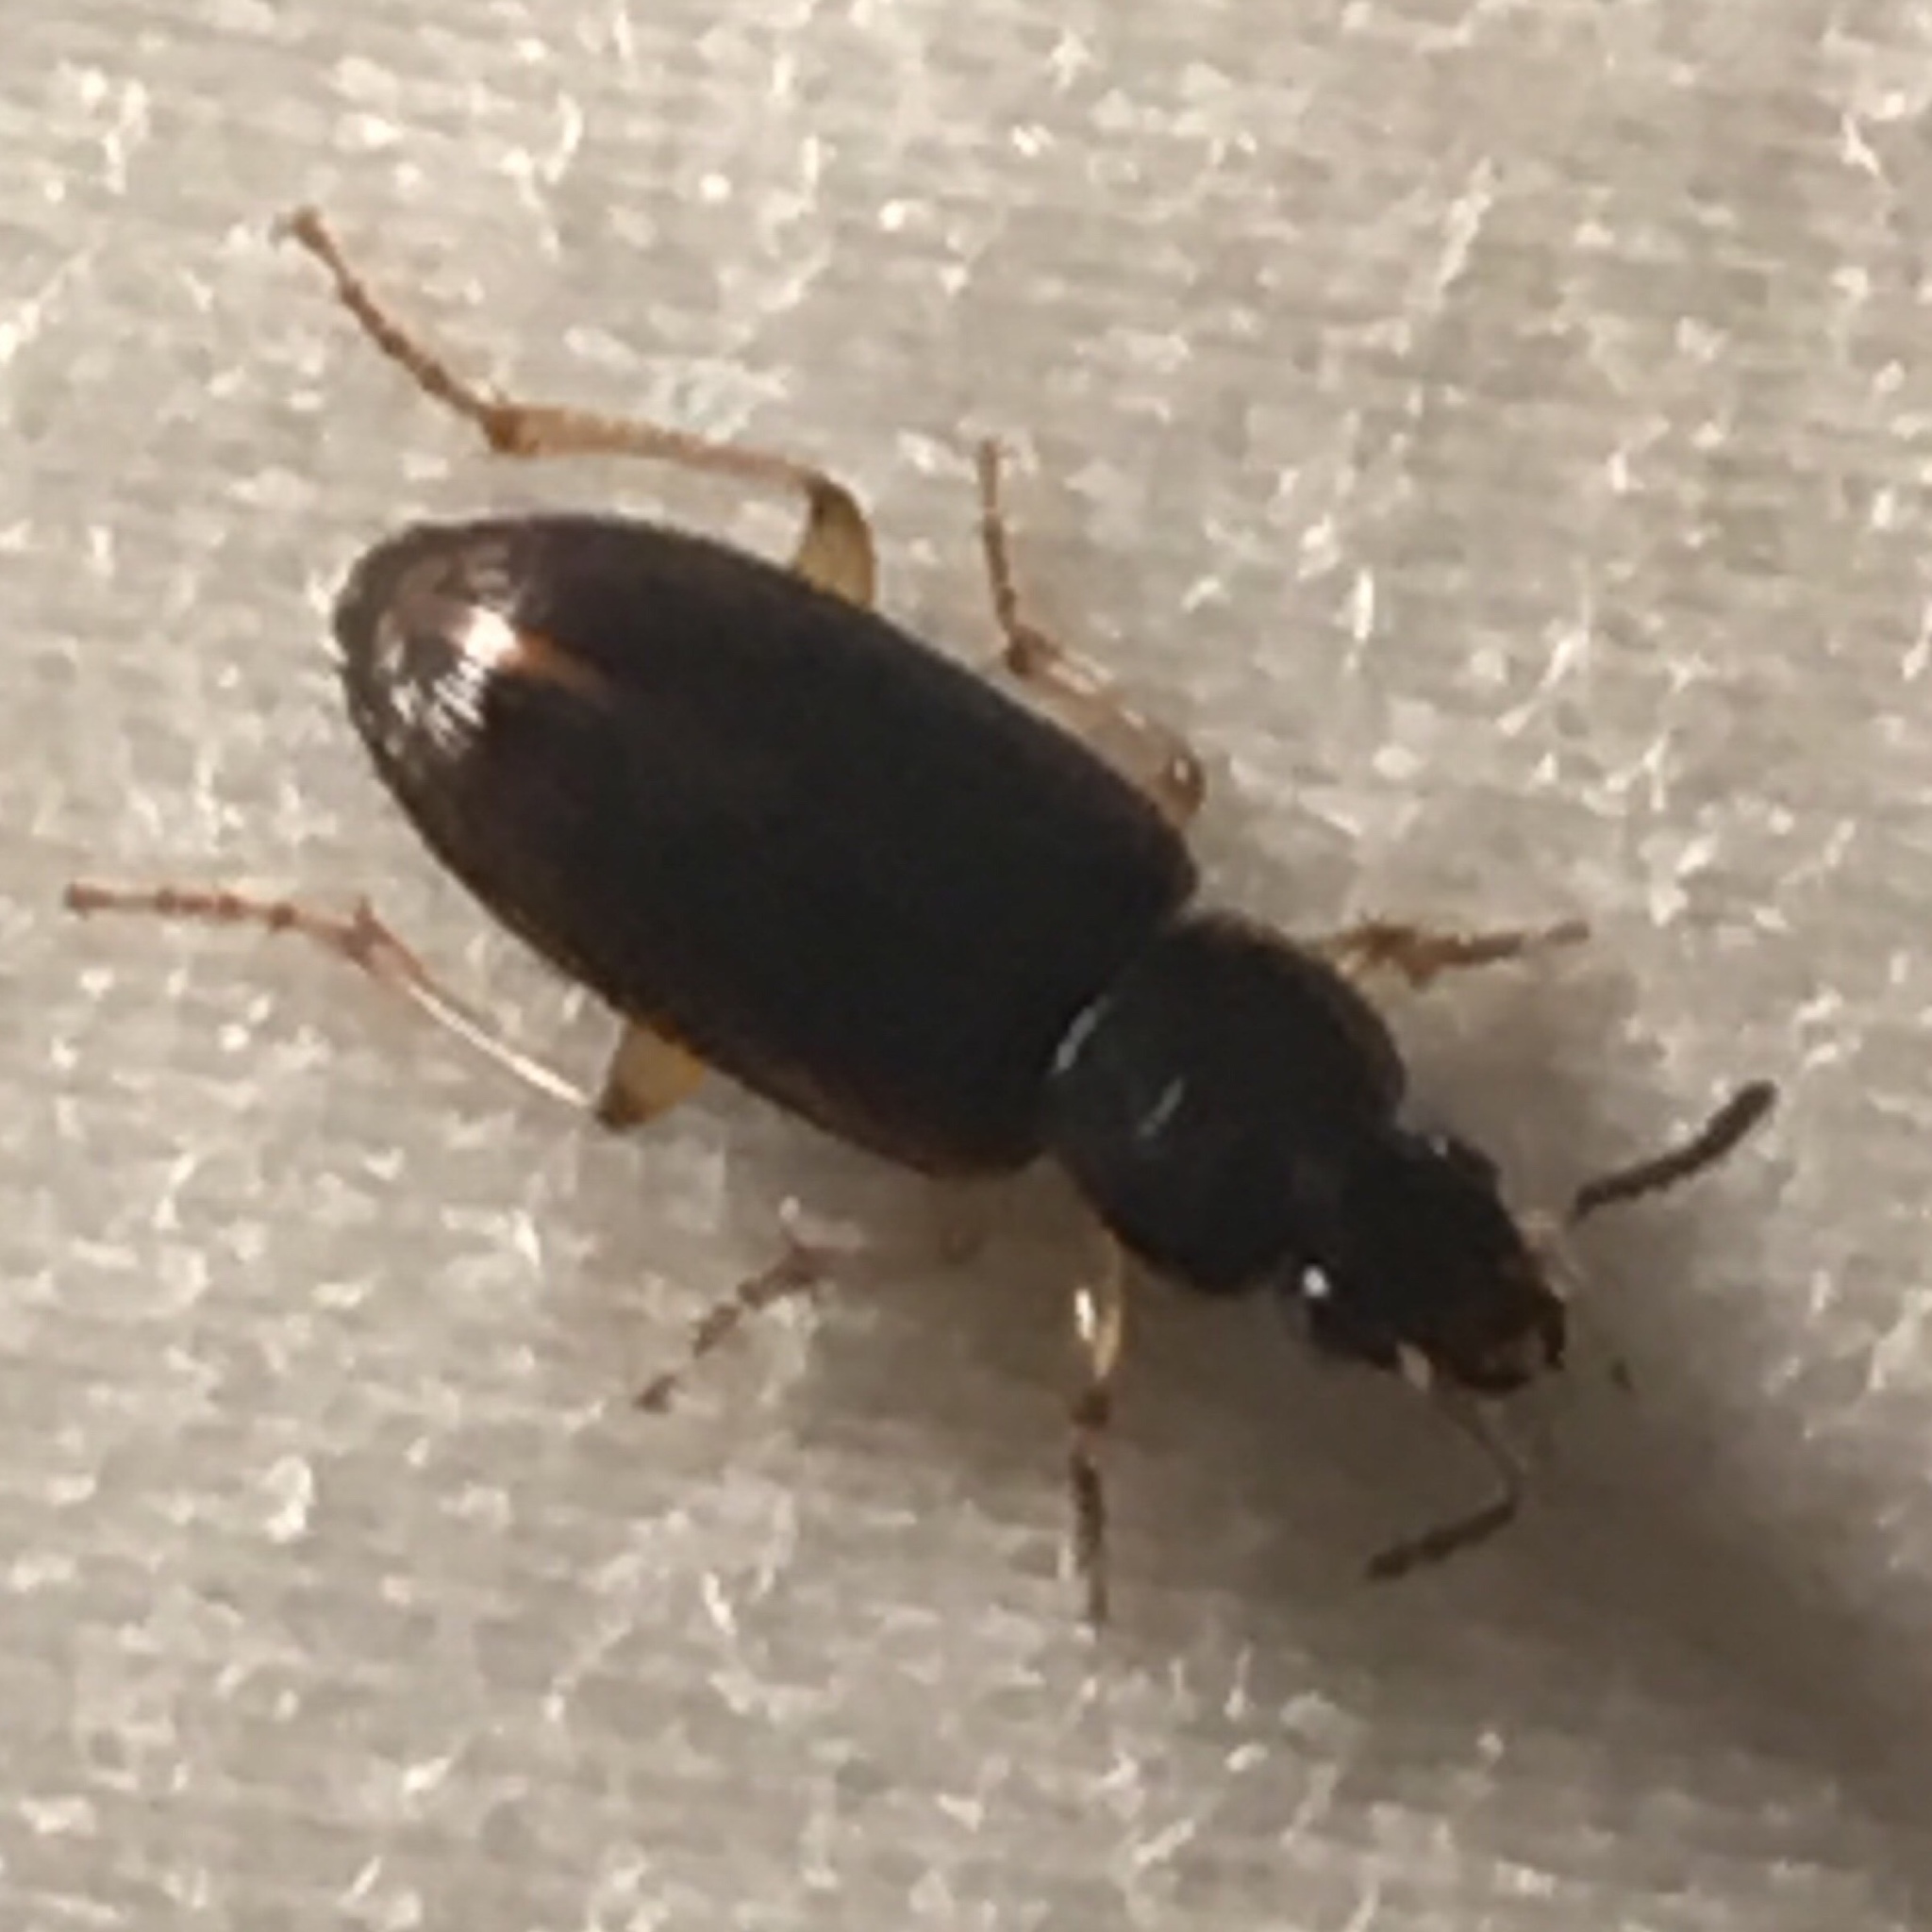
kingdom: Animalia
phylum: Arthropoda
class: Insecta
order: Coleoptera
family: Carabidae
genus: Stenolophus
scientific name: Stenolophus ochropezus
